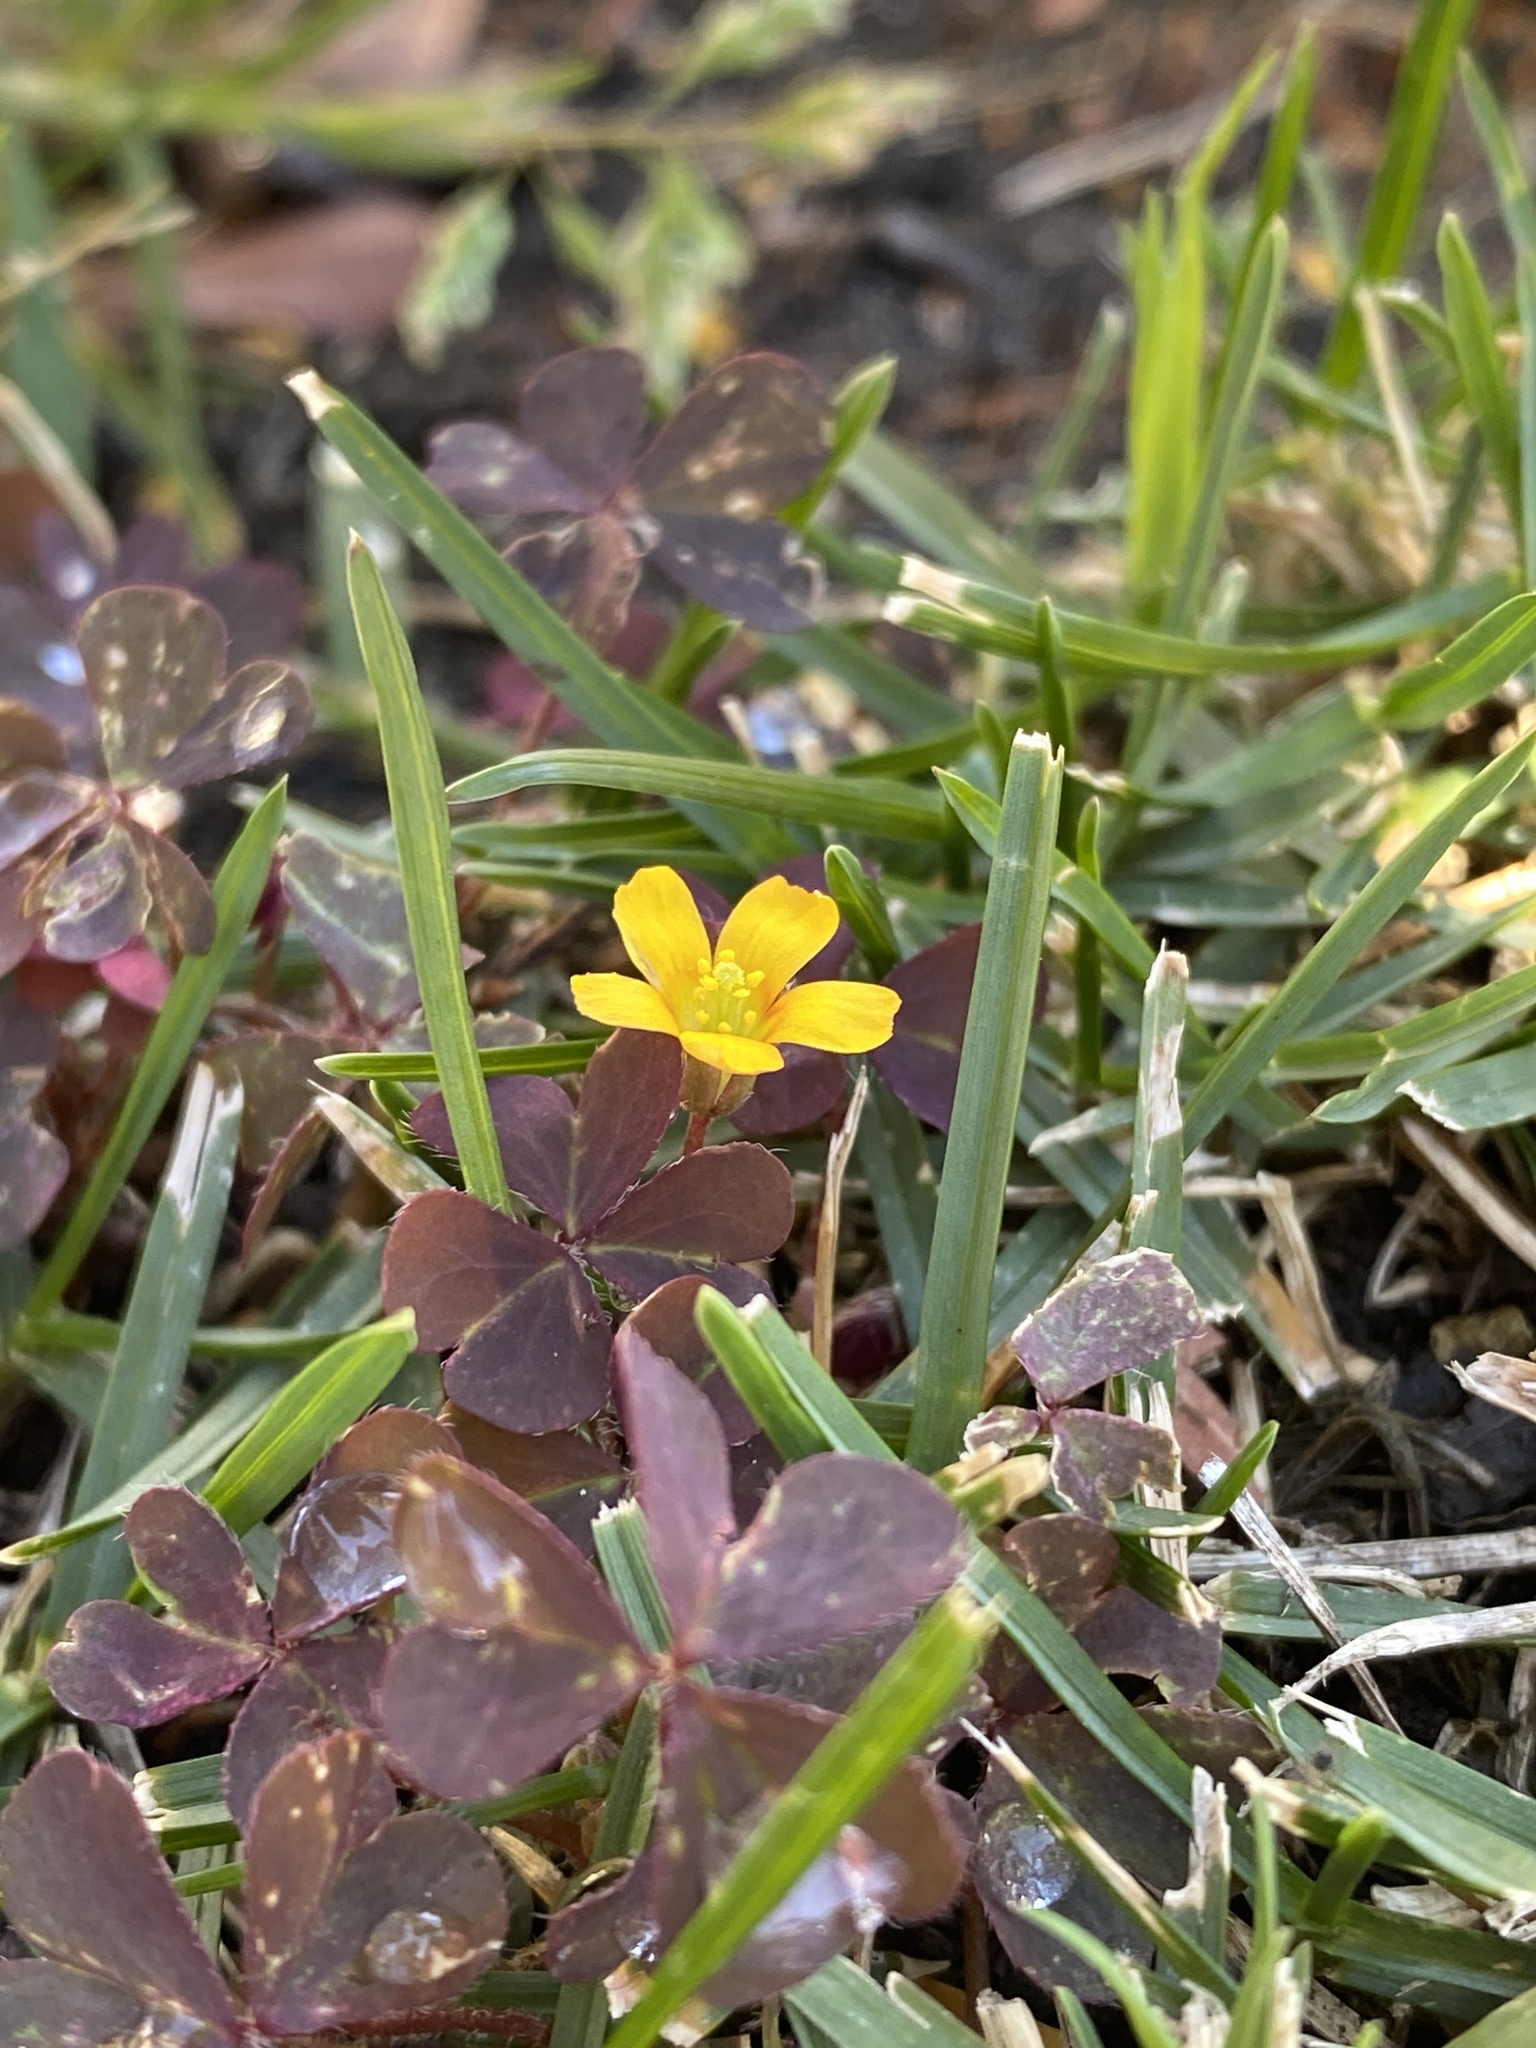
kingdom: Plantae
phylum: Tracheophyta
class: Magnoliopsida
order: Oxalidales
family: Oxalidaceae
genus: Oxalis
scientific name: Oxalis corniculata
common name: Procumbent yellow-sorrel
